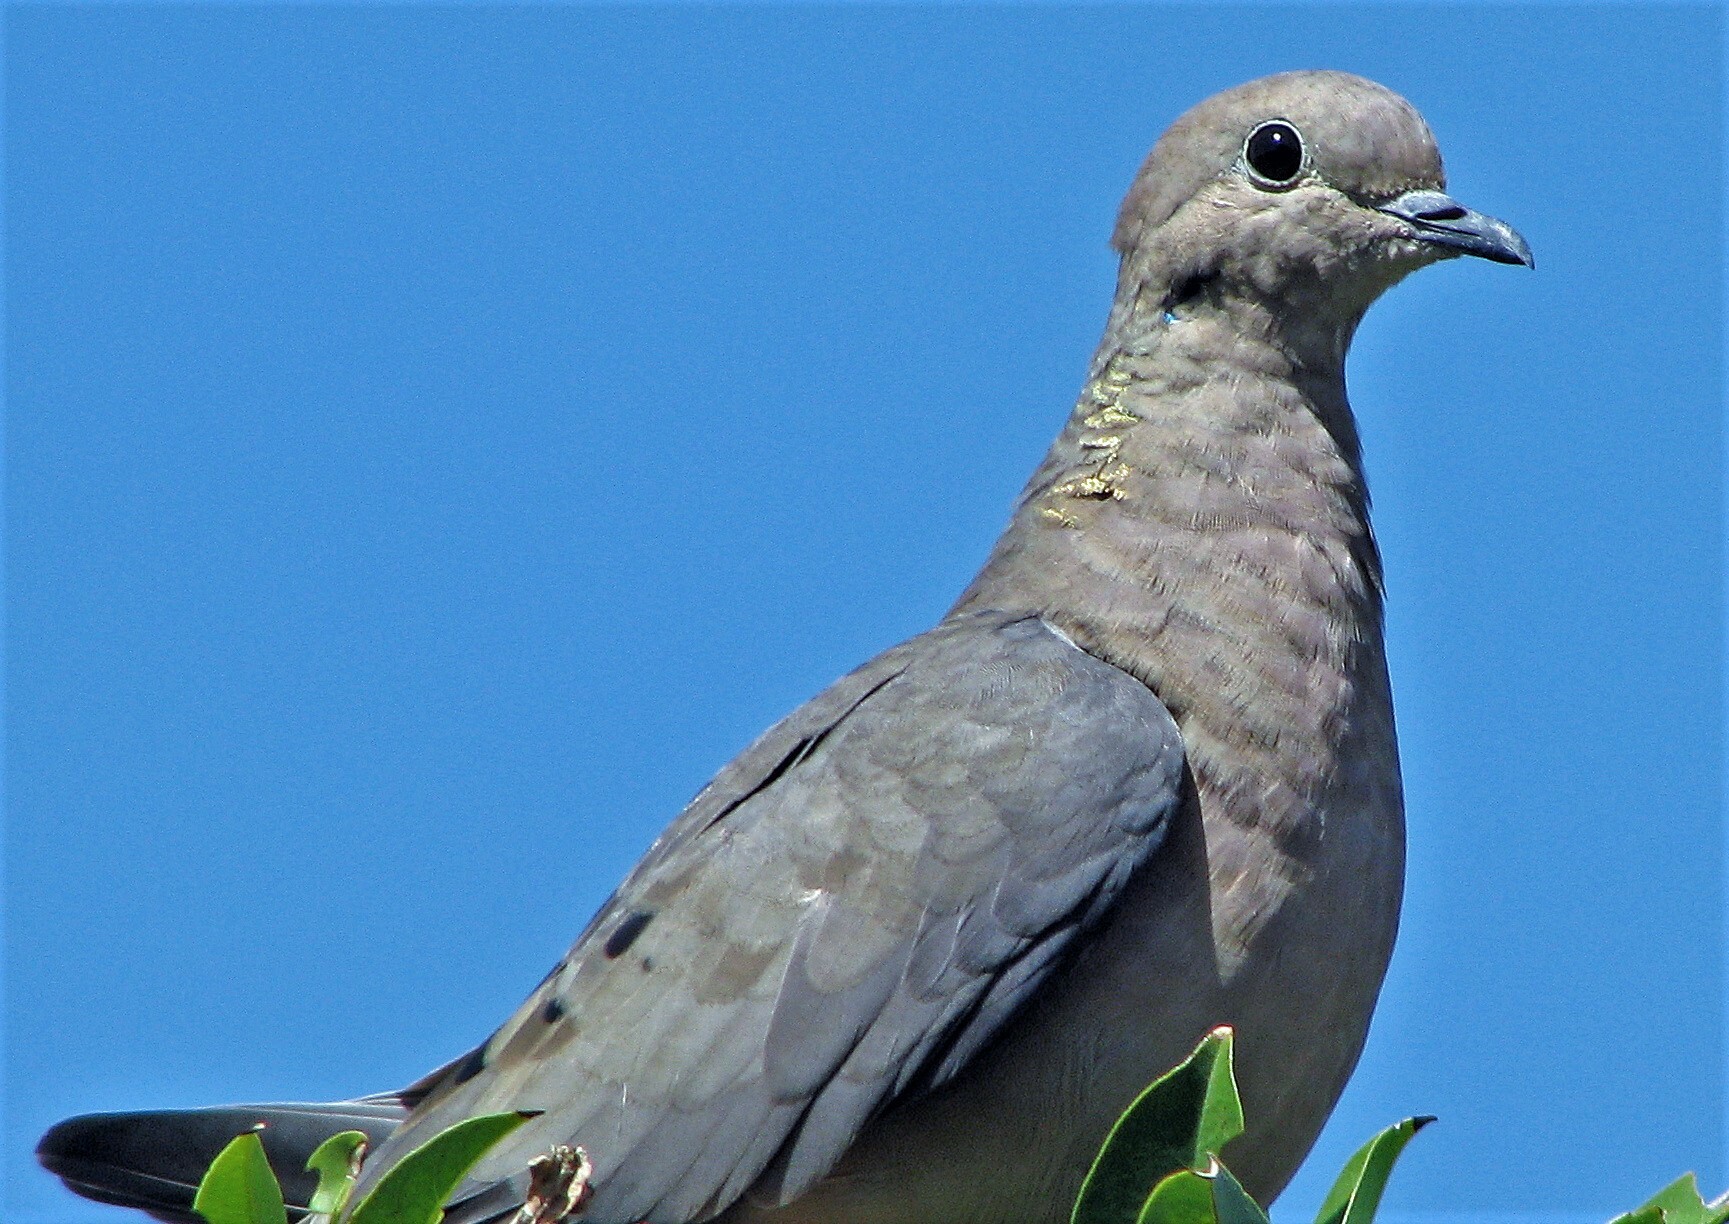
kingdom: Animalia
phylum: Chordata
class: Aves
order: Columbiformes
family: Columbidae
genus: Zenaida
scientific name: Zenaida auriculata
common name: Eared dove
